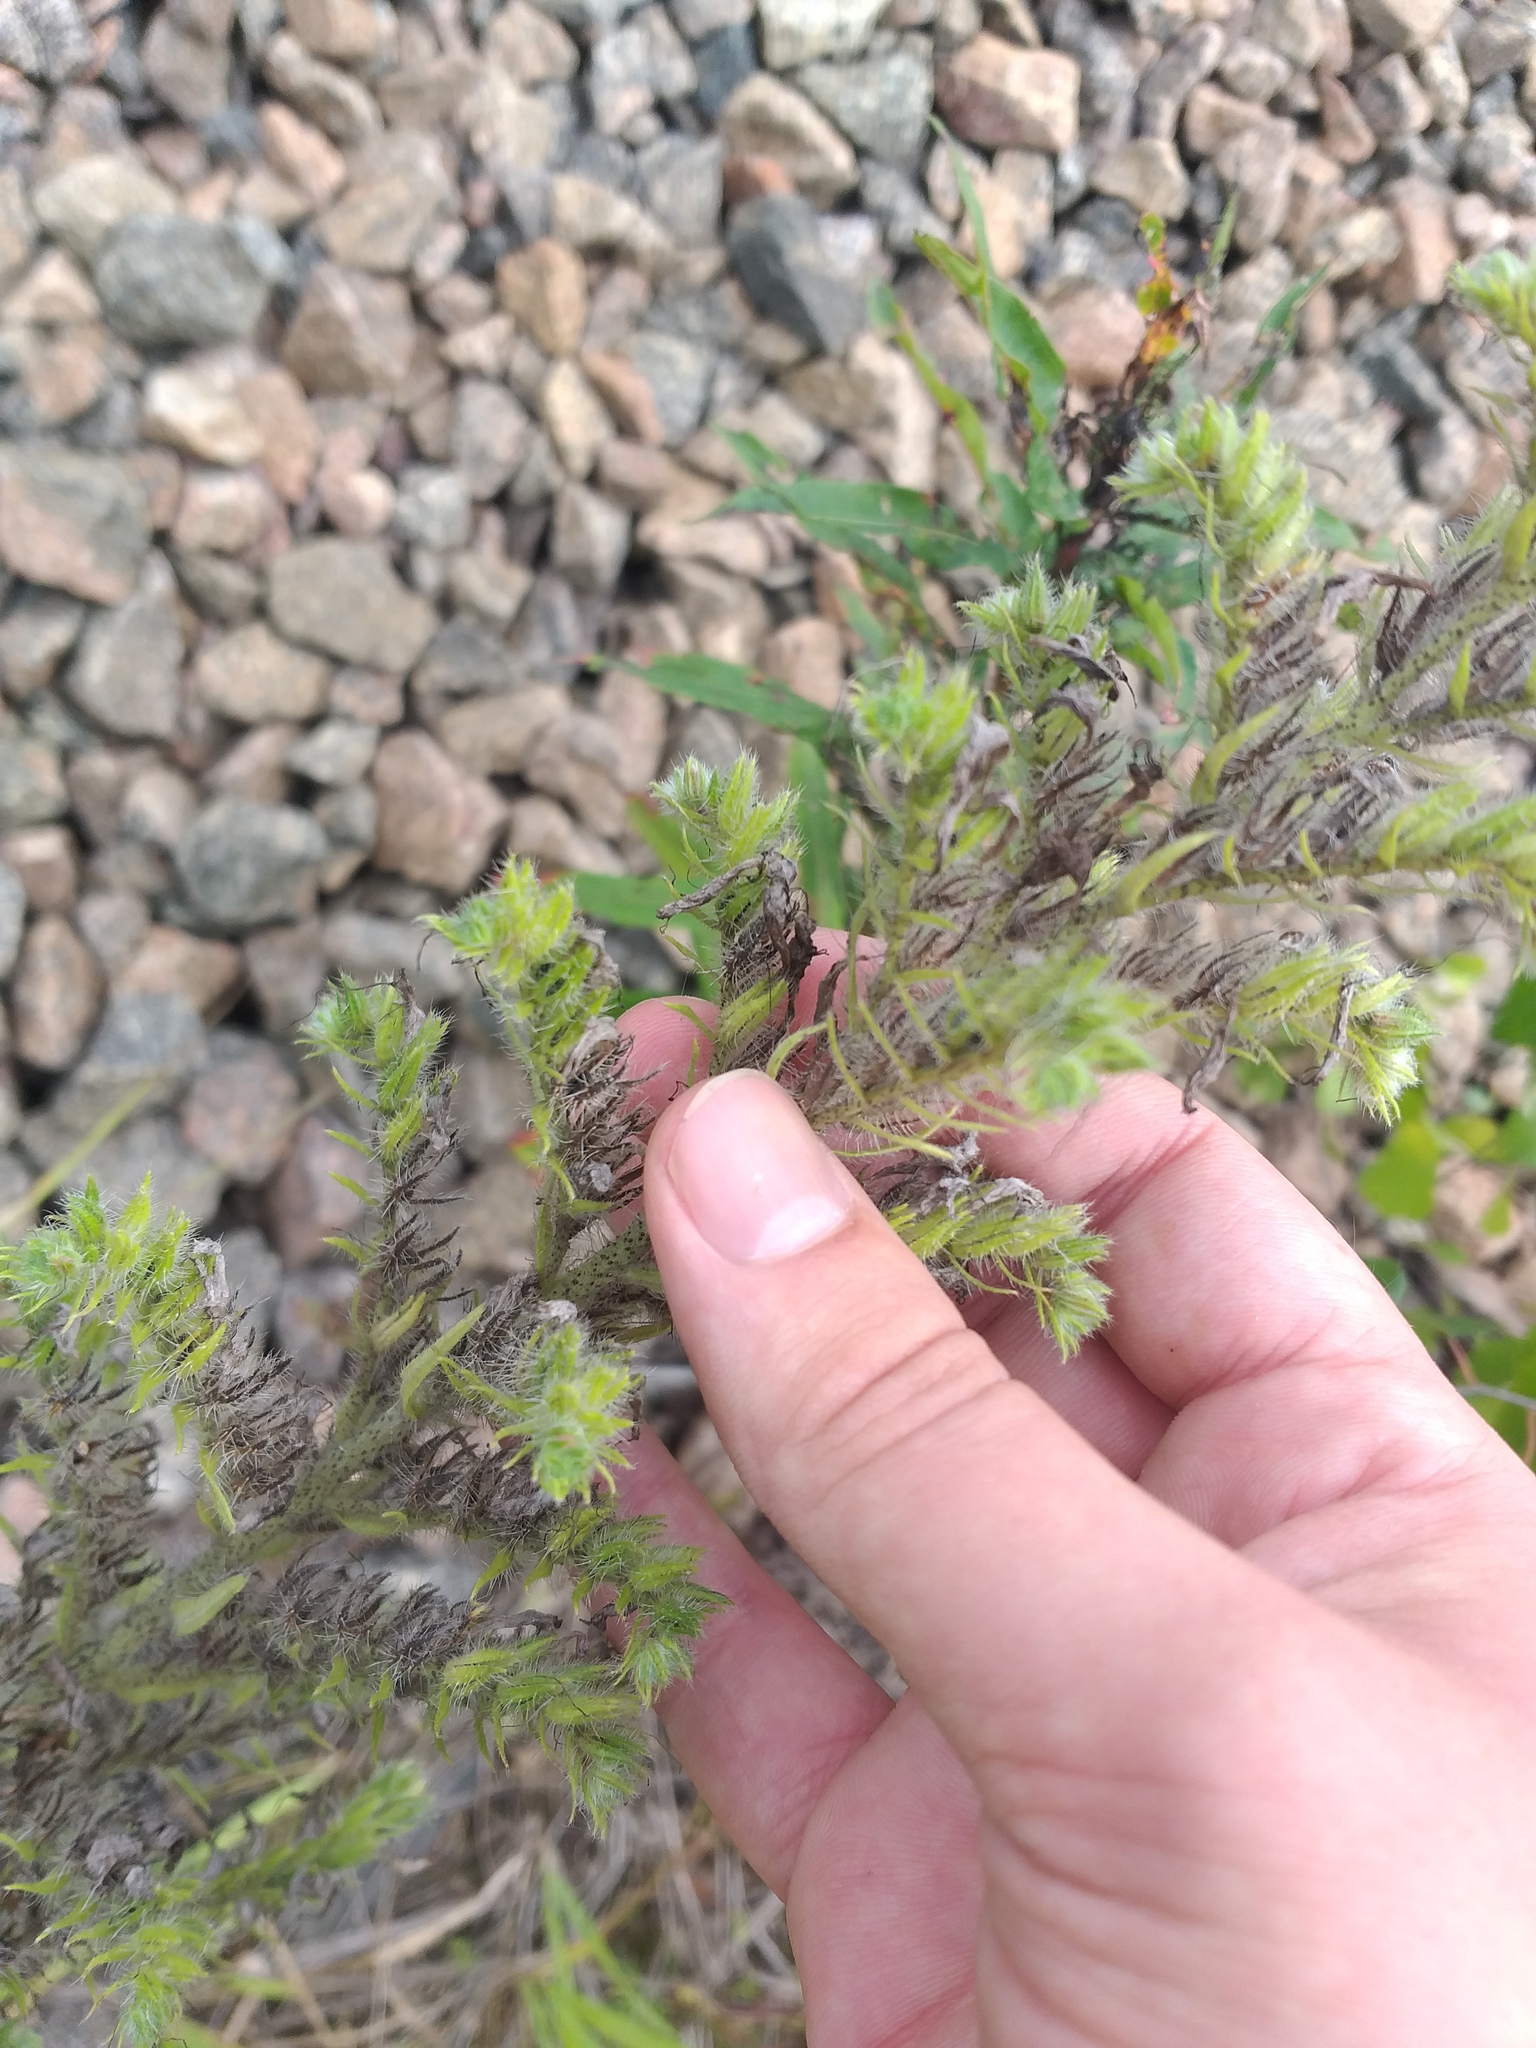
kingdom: Plantae
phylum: Tracheophyta
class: Magnoliopsida
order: Boraginales
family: Boraginaceae
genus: Echium
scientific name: Echium vulgare
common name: Common viper's bugloss
